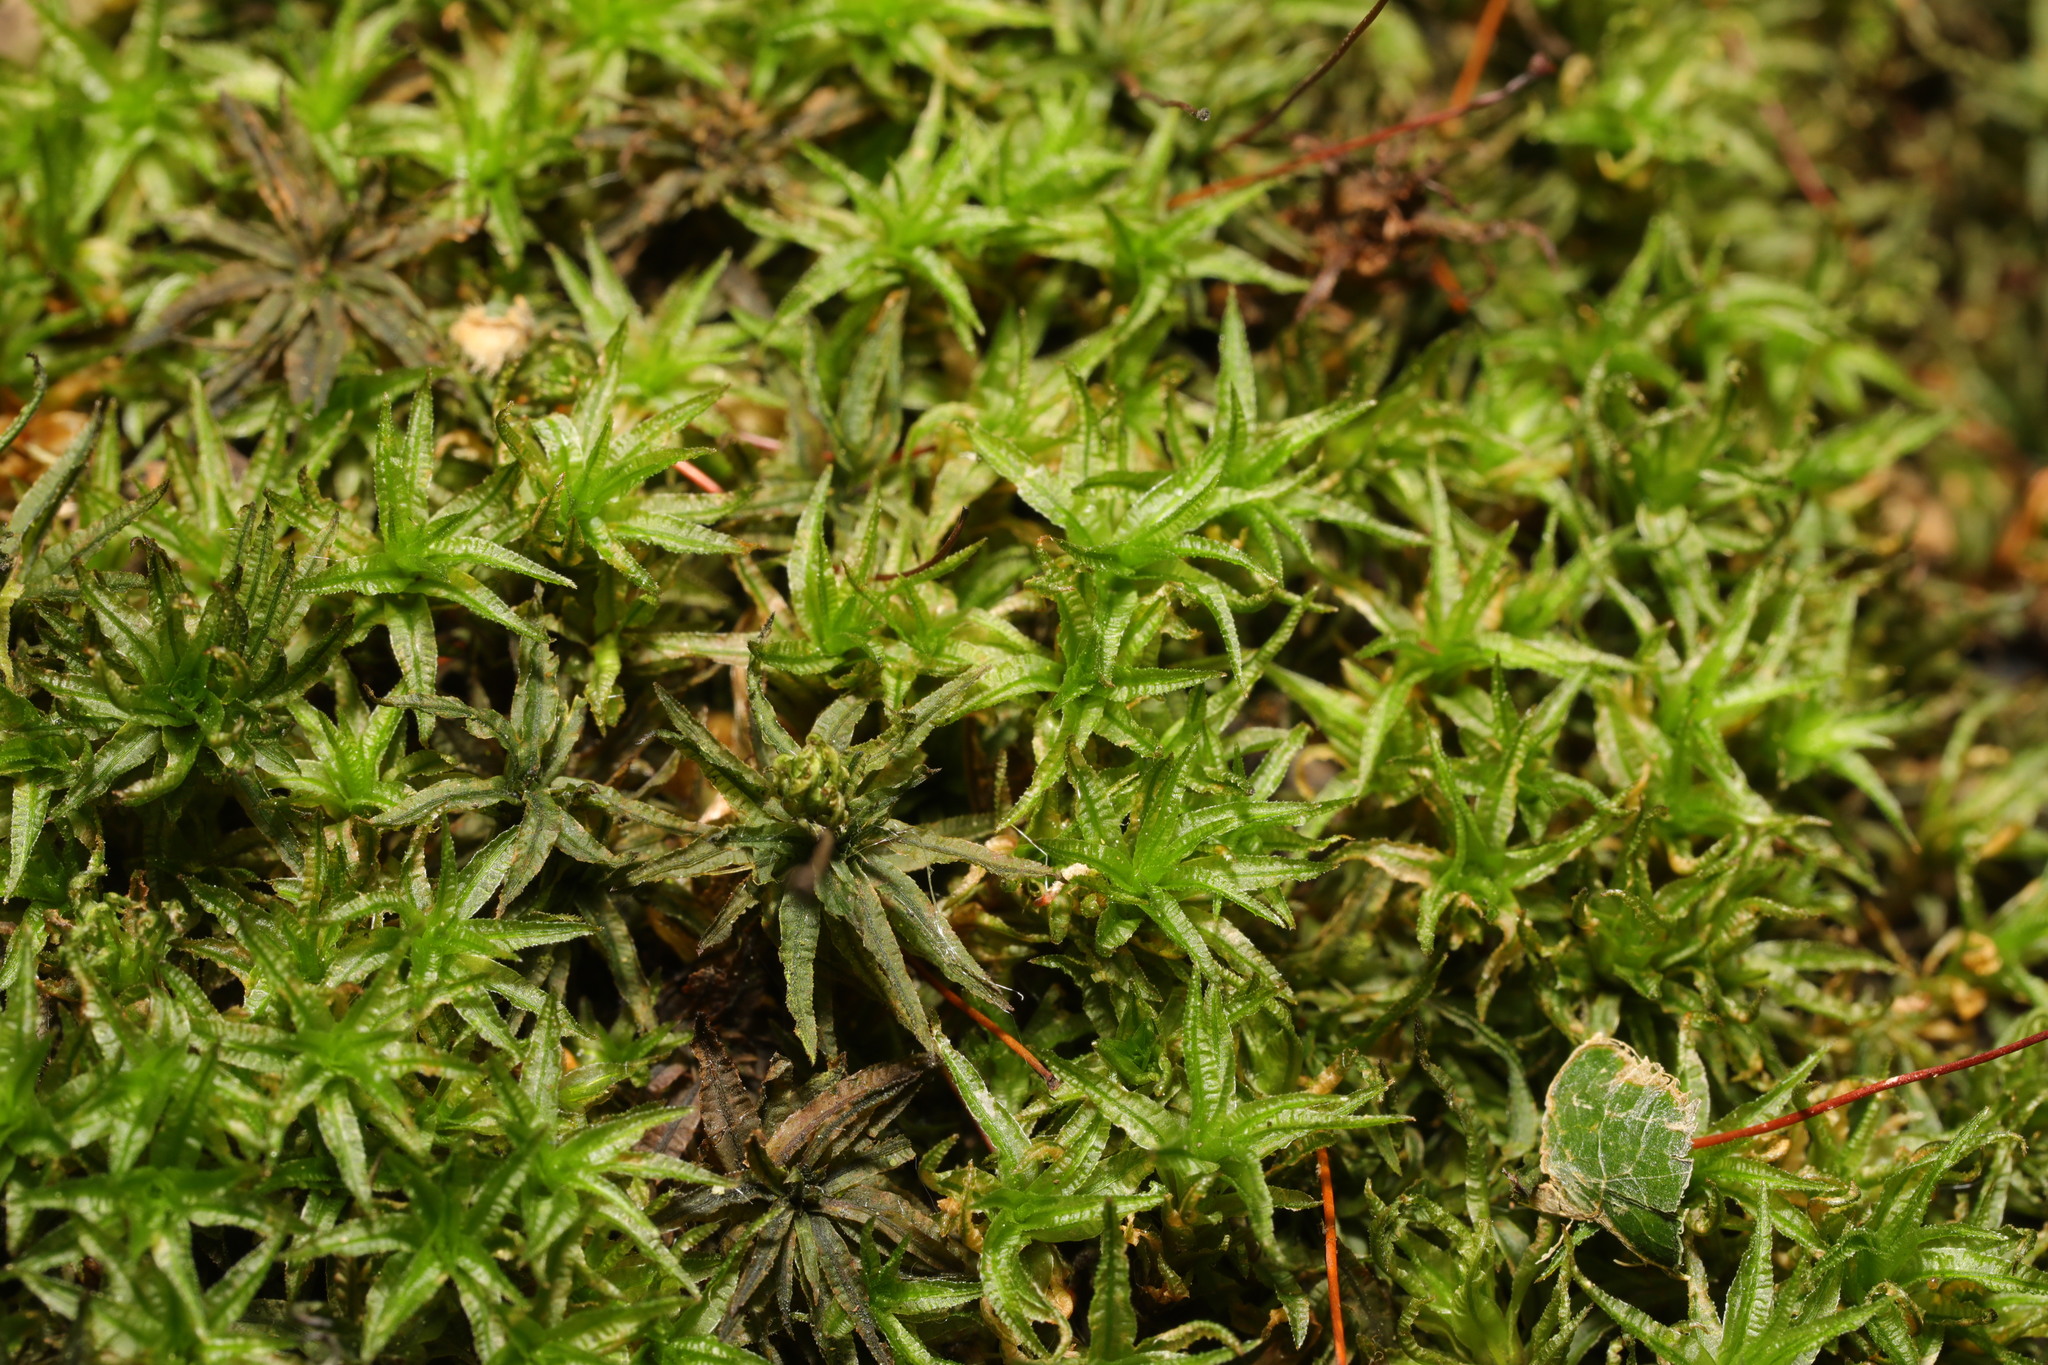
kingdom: Plantae
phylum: Bryophyta
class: Polytrichopsida
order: Polytrichales
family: Polytrichaceae
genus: Atrichum
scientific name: Atrichum undulatum
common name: Common smoothcap
